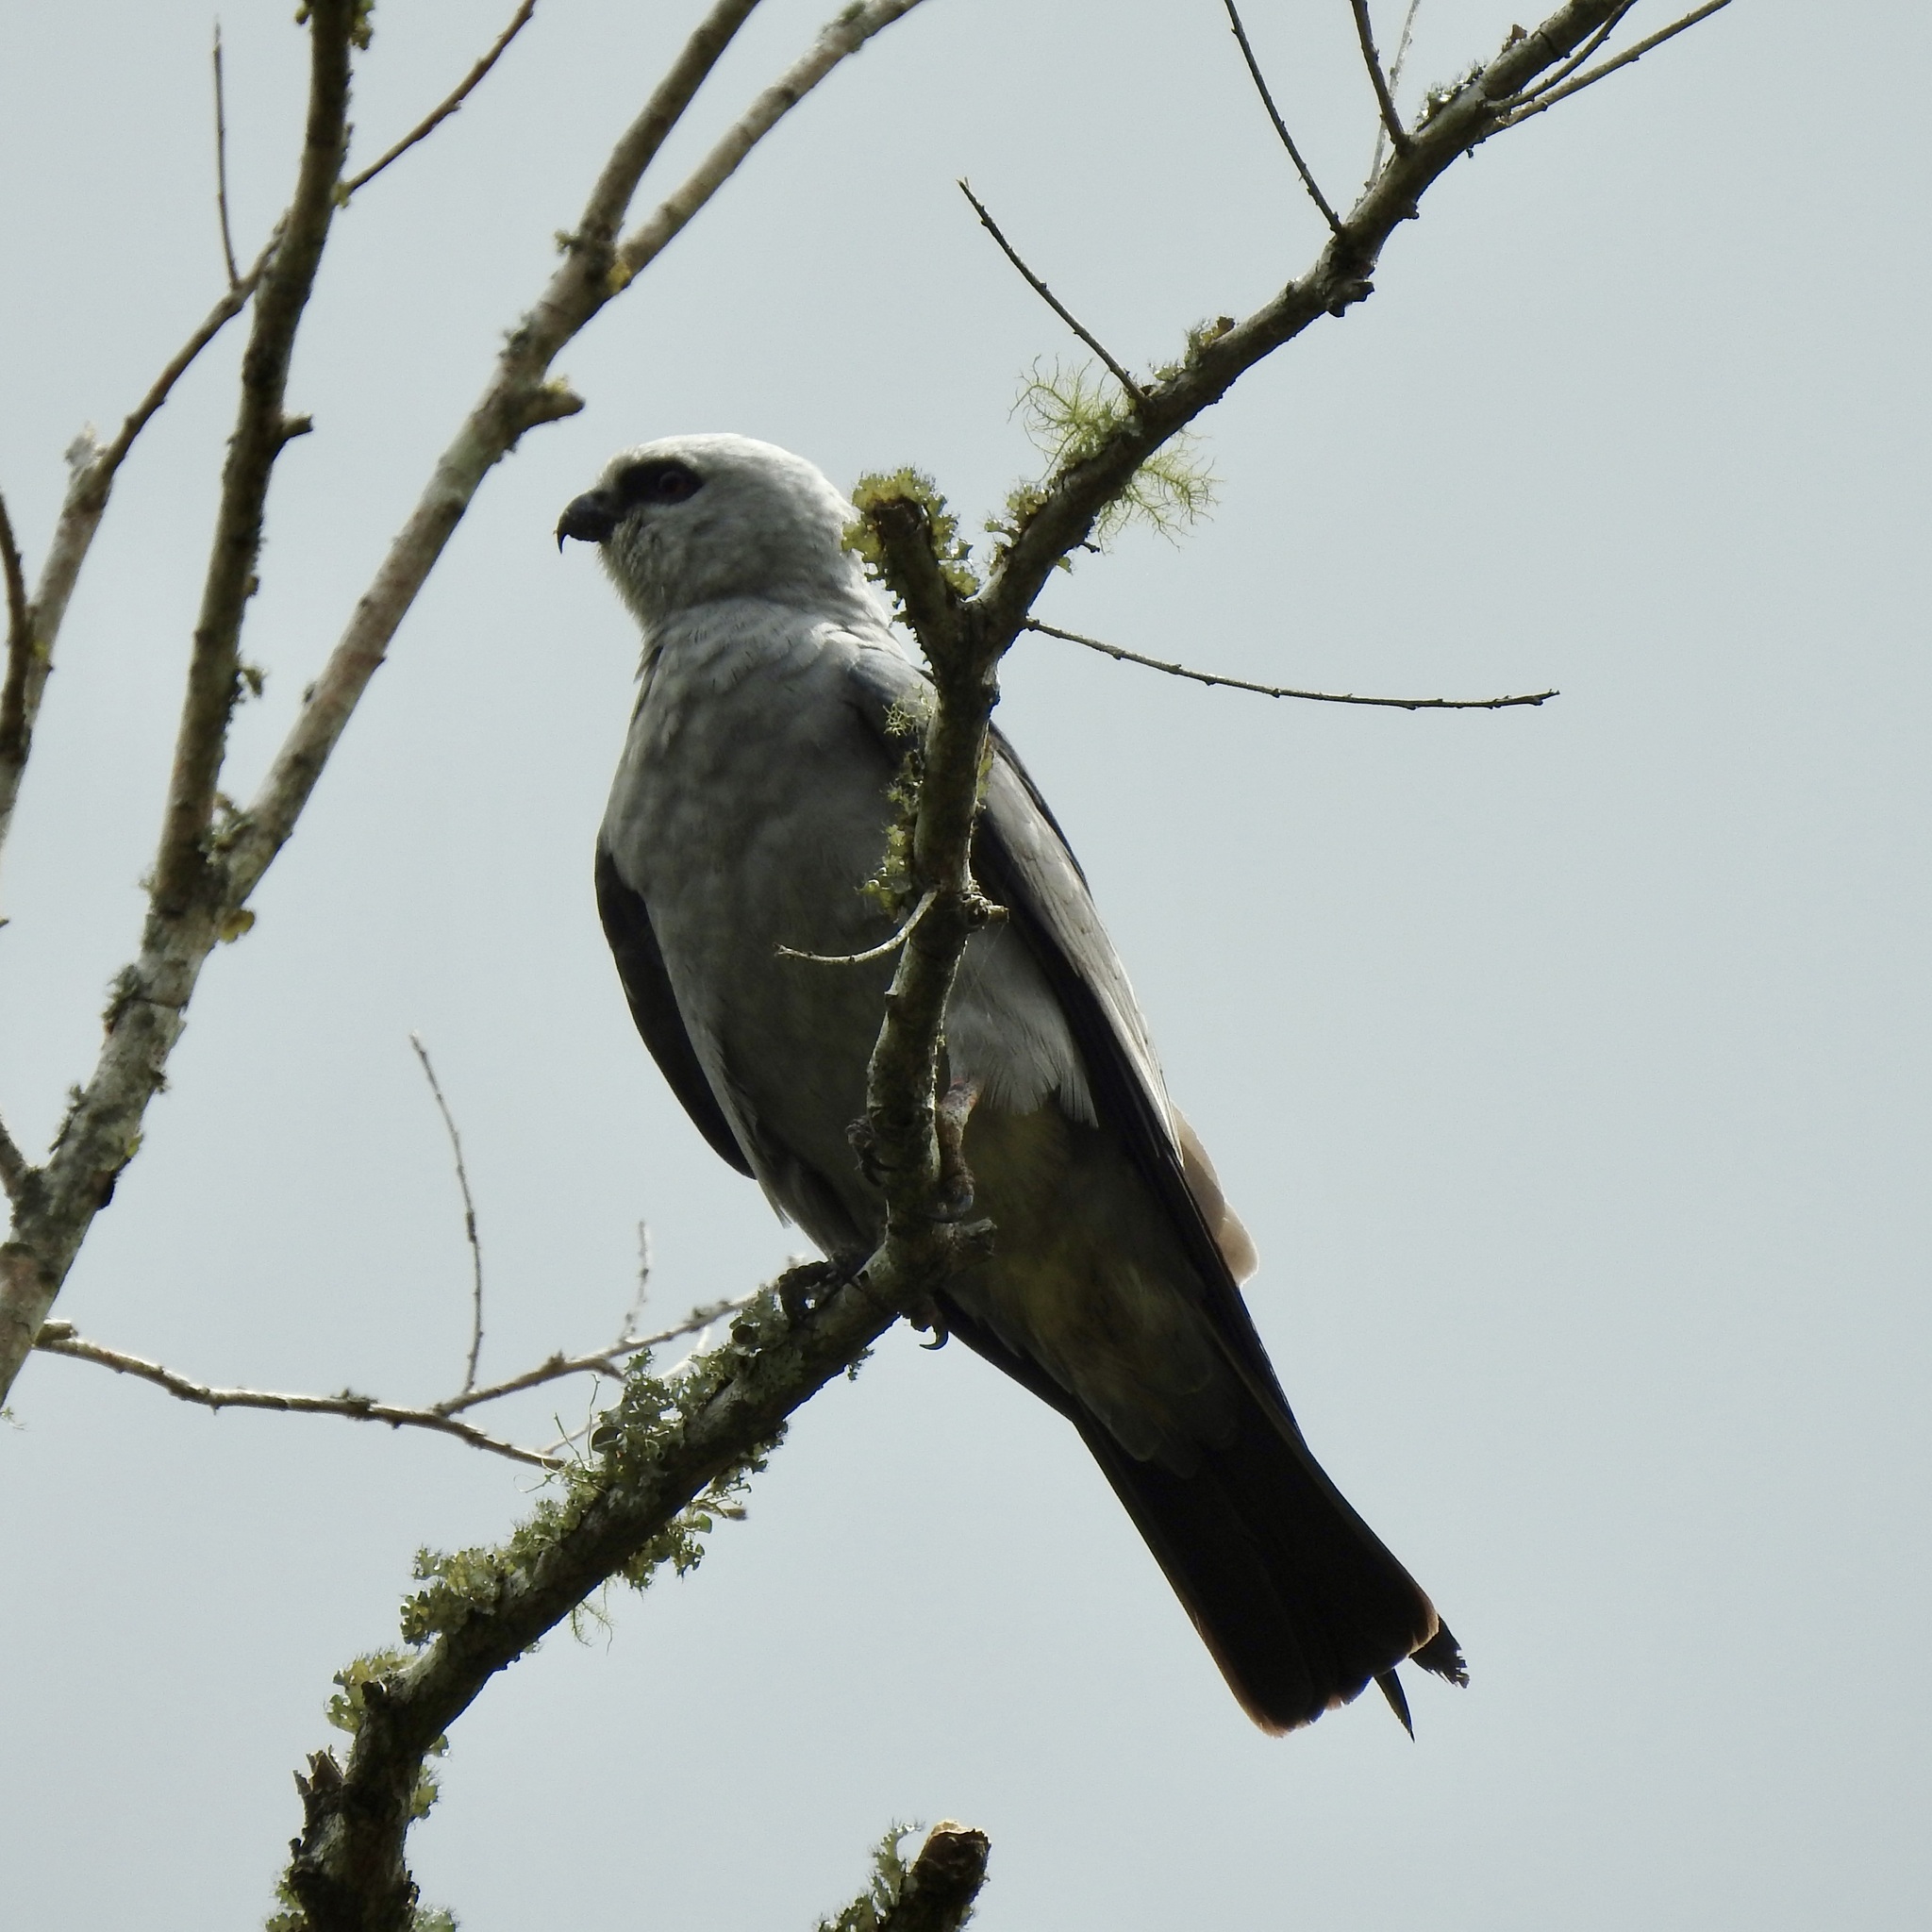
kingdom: Animalia
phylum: Chordata
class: Aves
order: Accipitriformes
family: Accipitridae
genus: Ictinia
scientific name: Ictinia mississippiensis
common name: Mississippi kite
